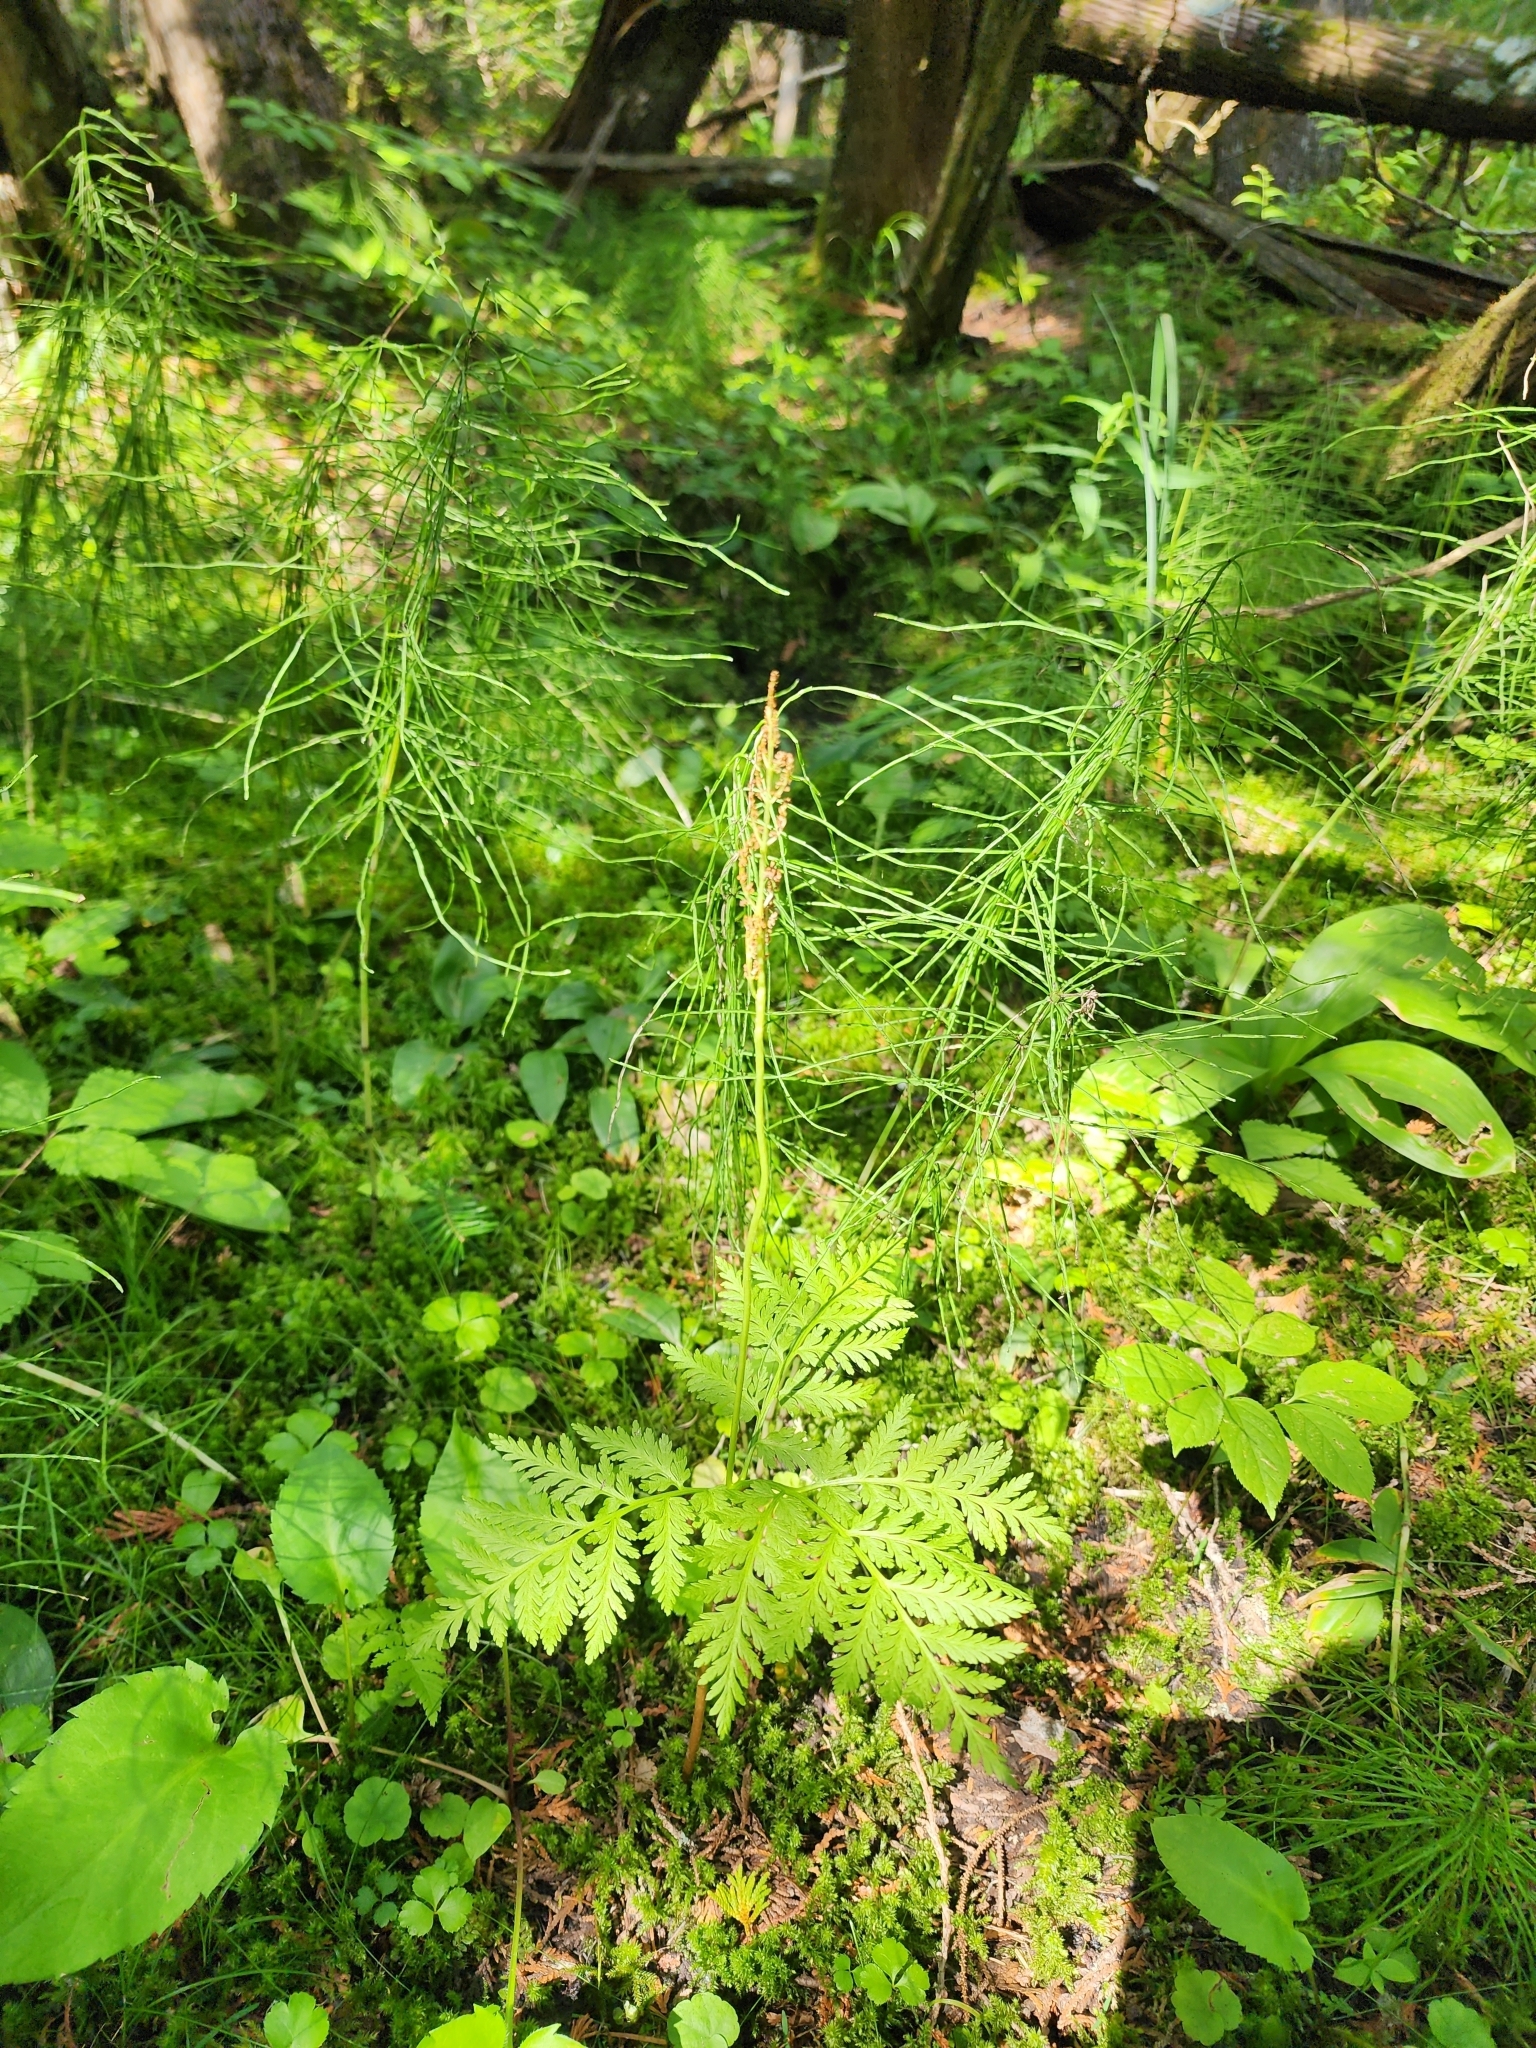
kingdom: Plantae
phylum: Tracheophyta
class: Polypodiopsida
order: Ophioglossales
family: Ophioglossaceae
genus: Botrypus
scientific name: Botrypus virginianus
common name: Common grapefern
